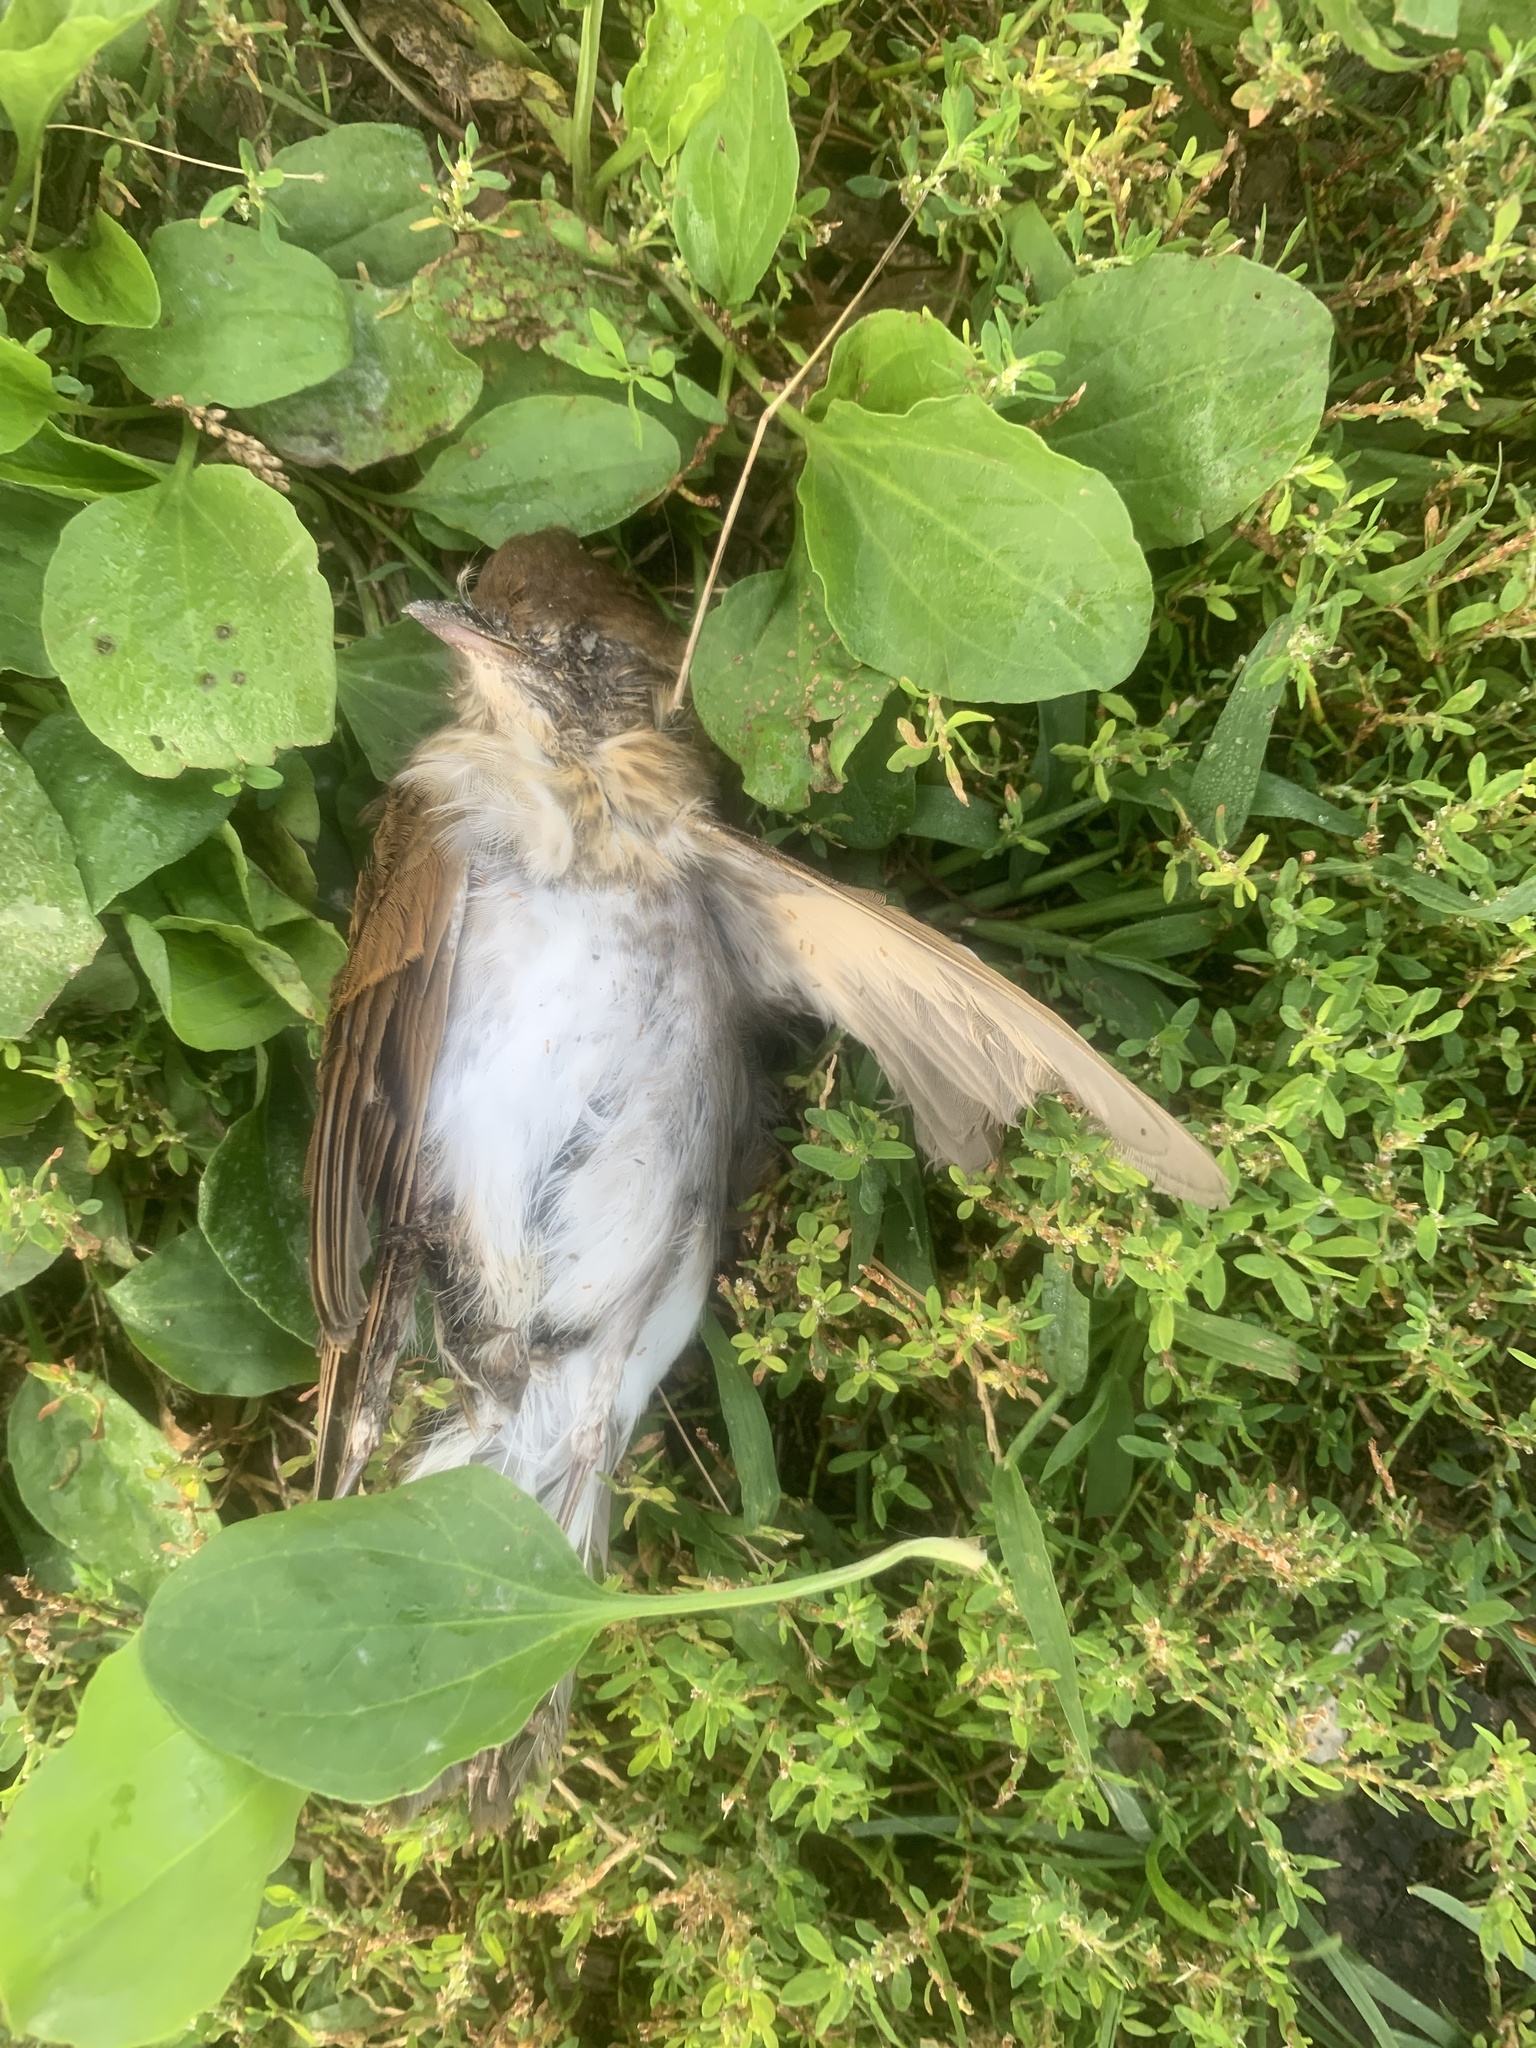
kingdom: Animalia
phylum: Chordata
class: Aves
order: Passeriformes
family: Turdidae
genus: Catharus
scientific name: Catharus fuscescens
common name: Veery
